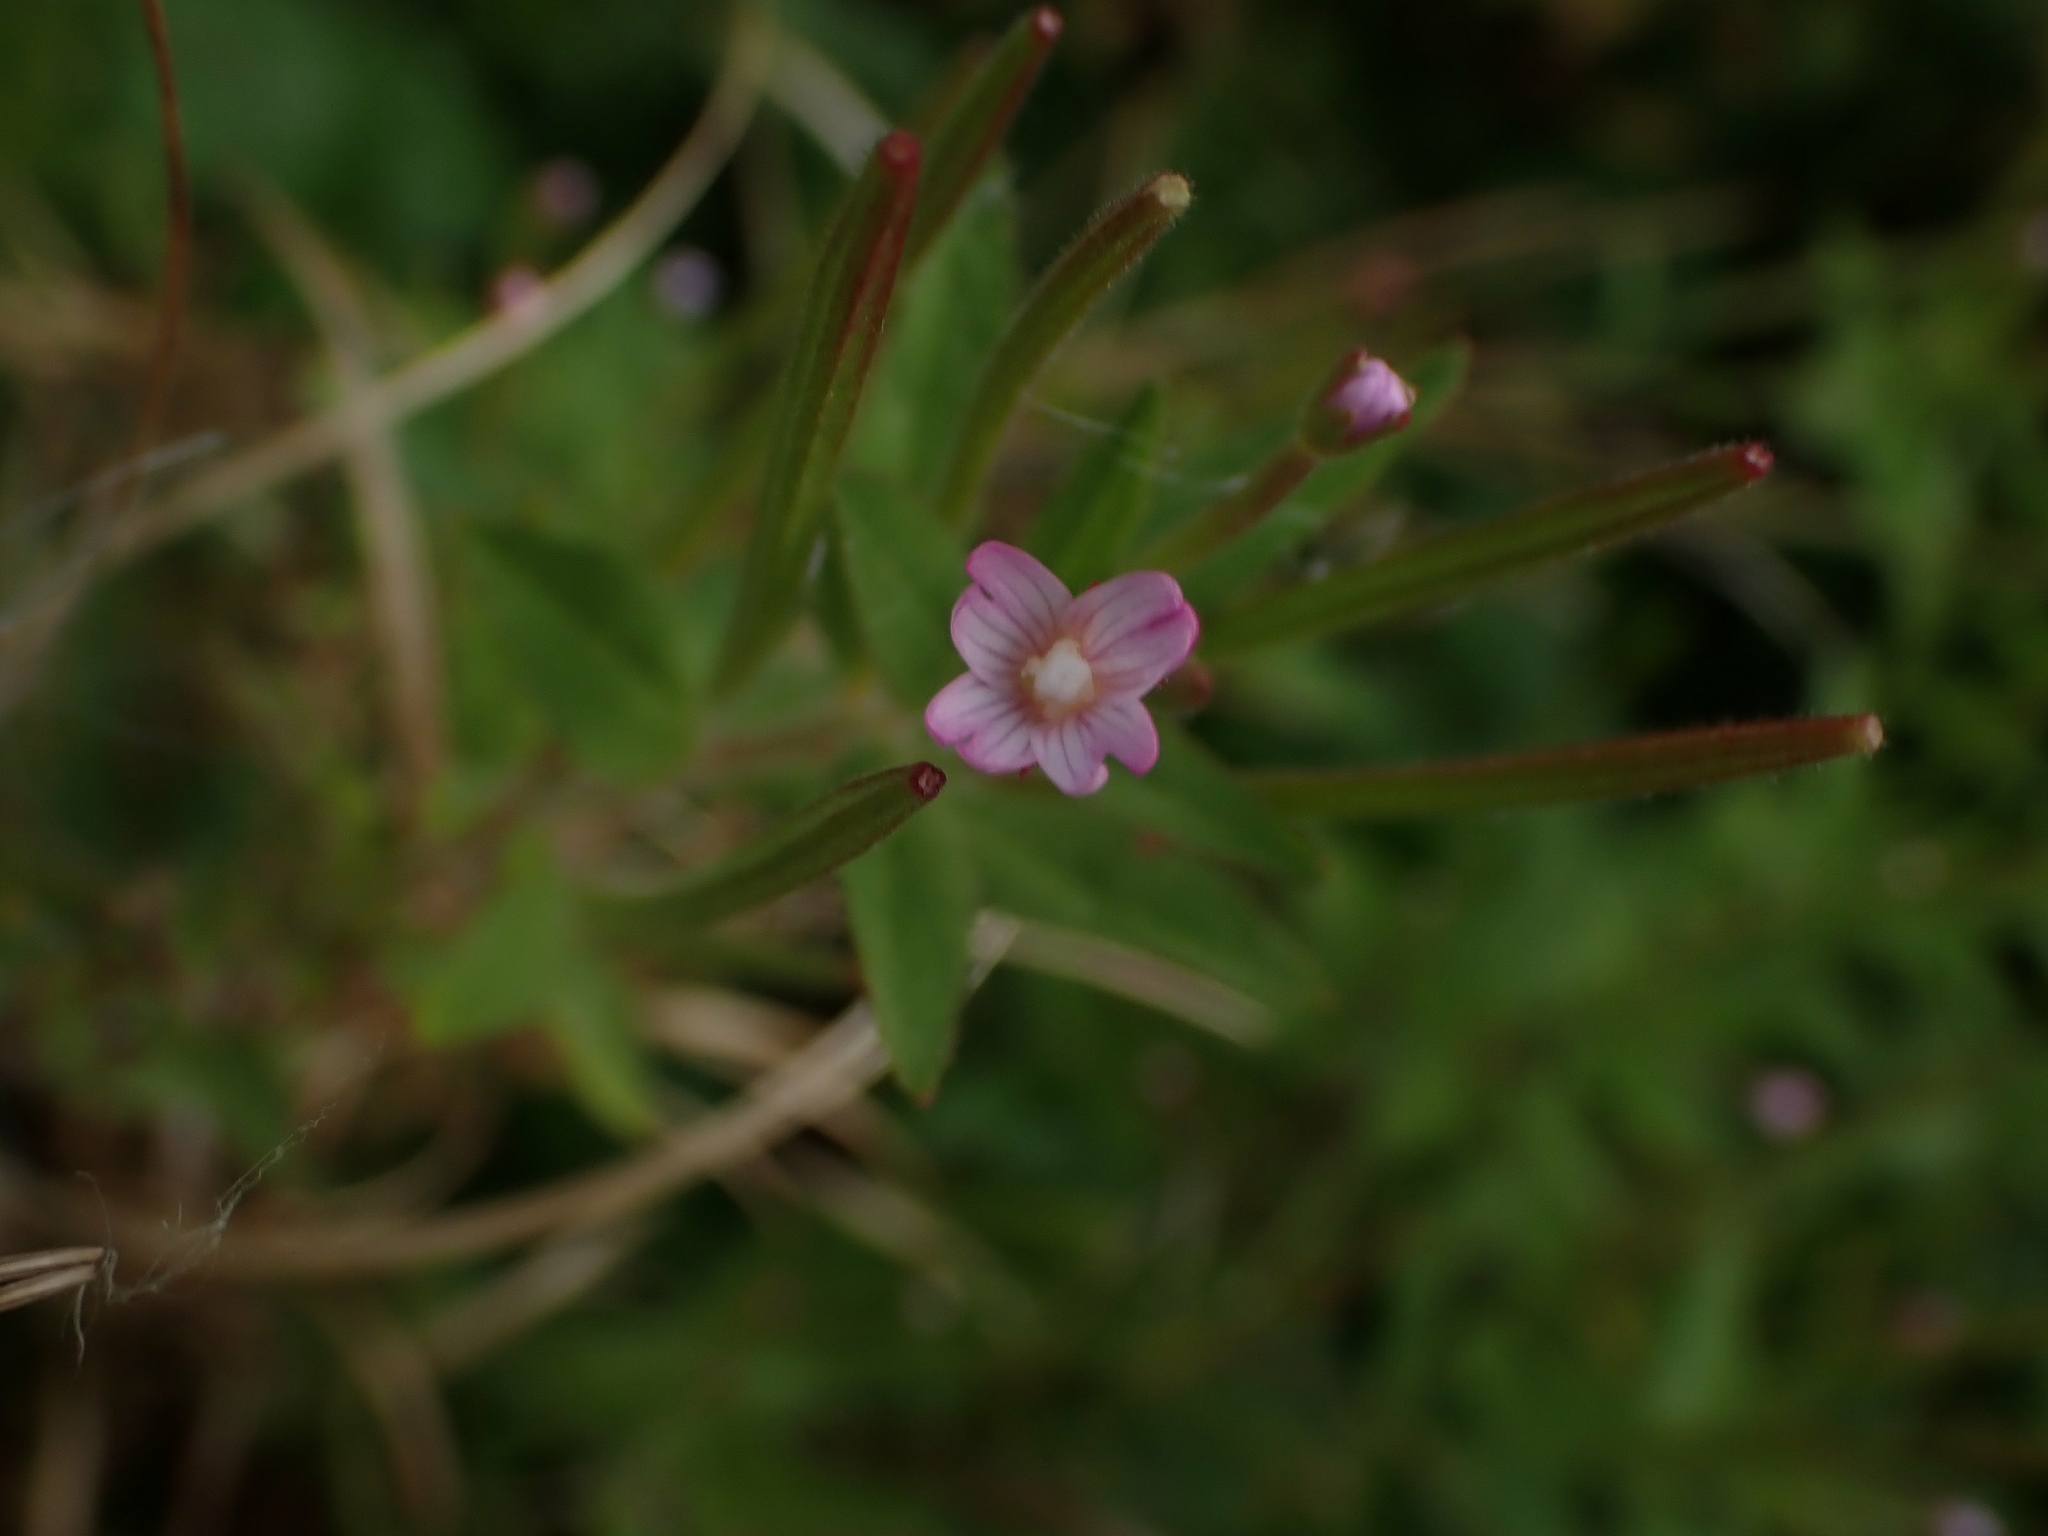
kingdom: Plantae
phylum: Tracheophyta
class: Magnoliopsida
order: Myrtales
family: Onagraceae
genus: Epilobium
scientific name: Epilobium ciliatum
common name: American willowherb
